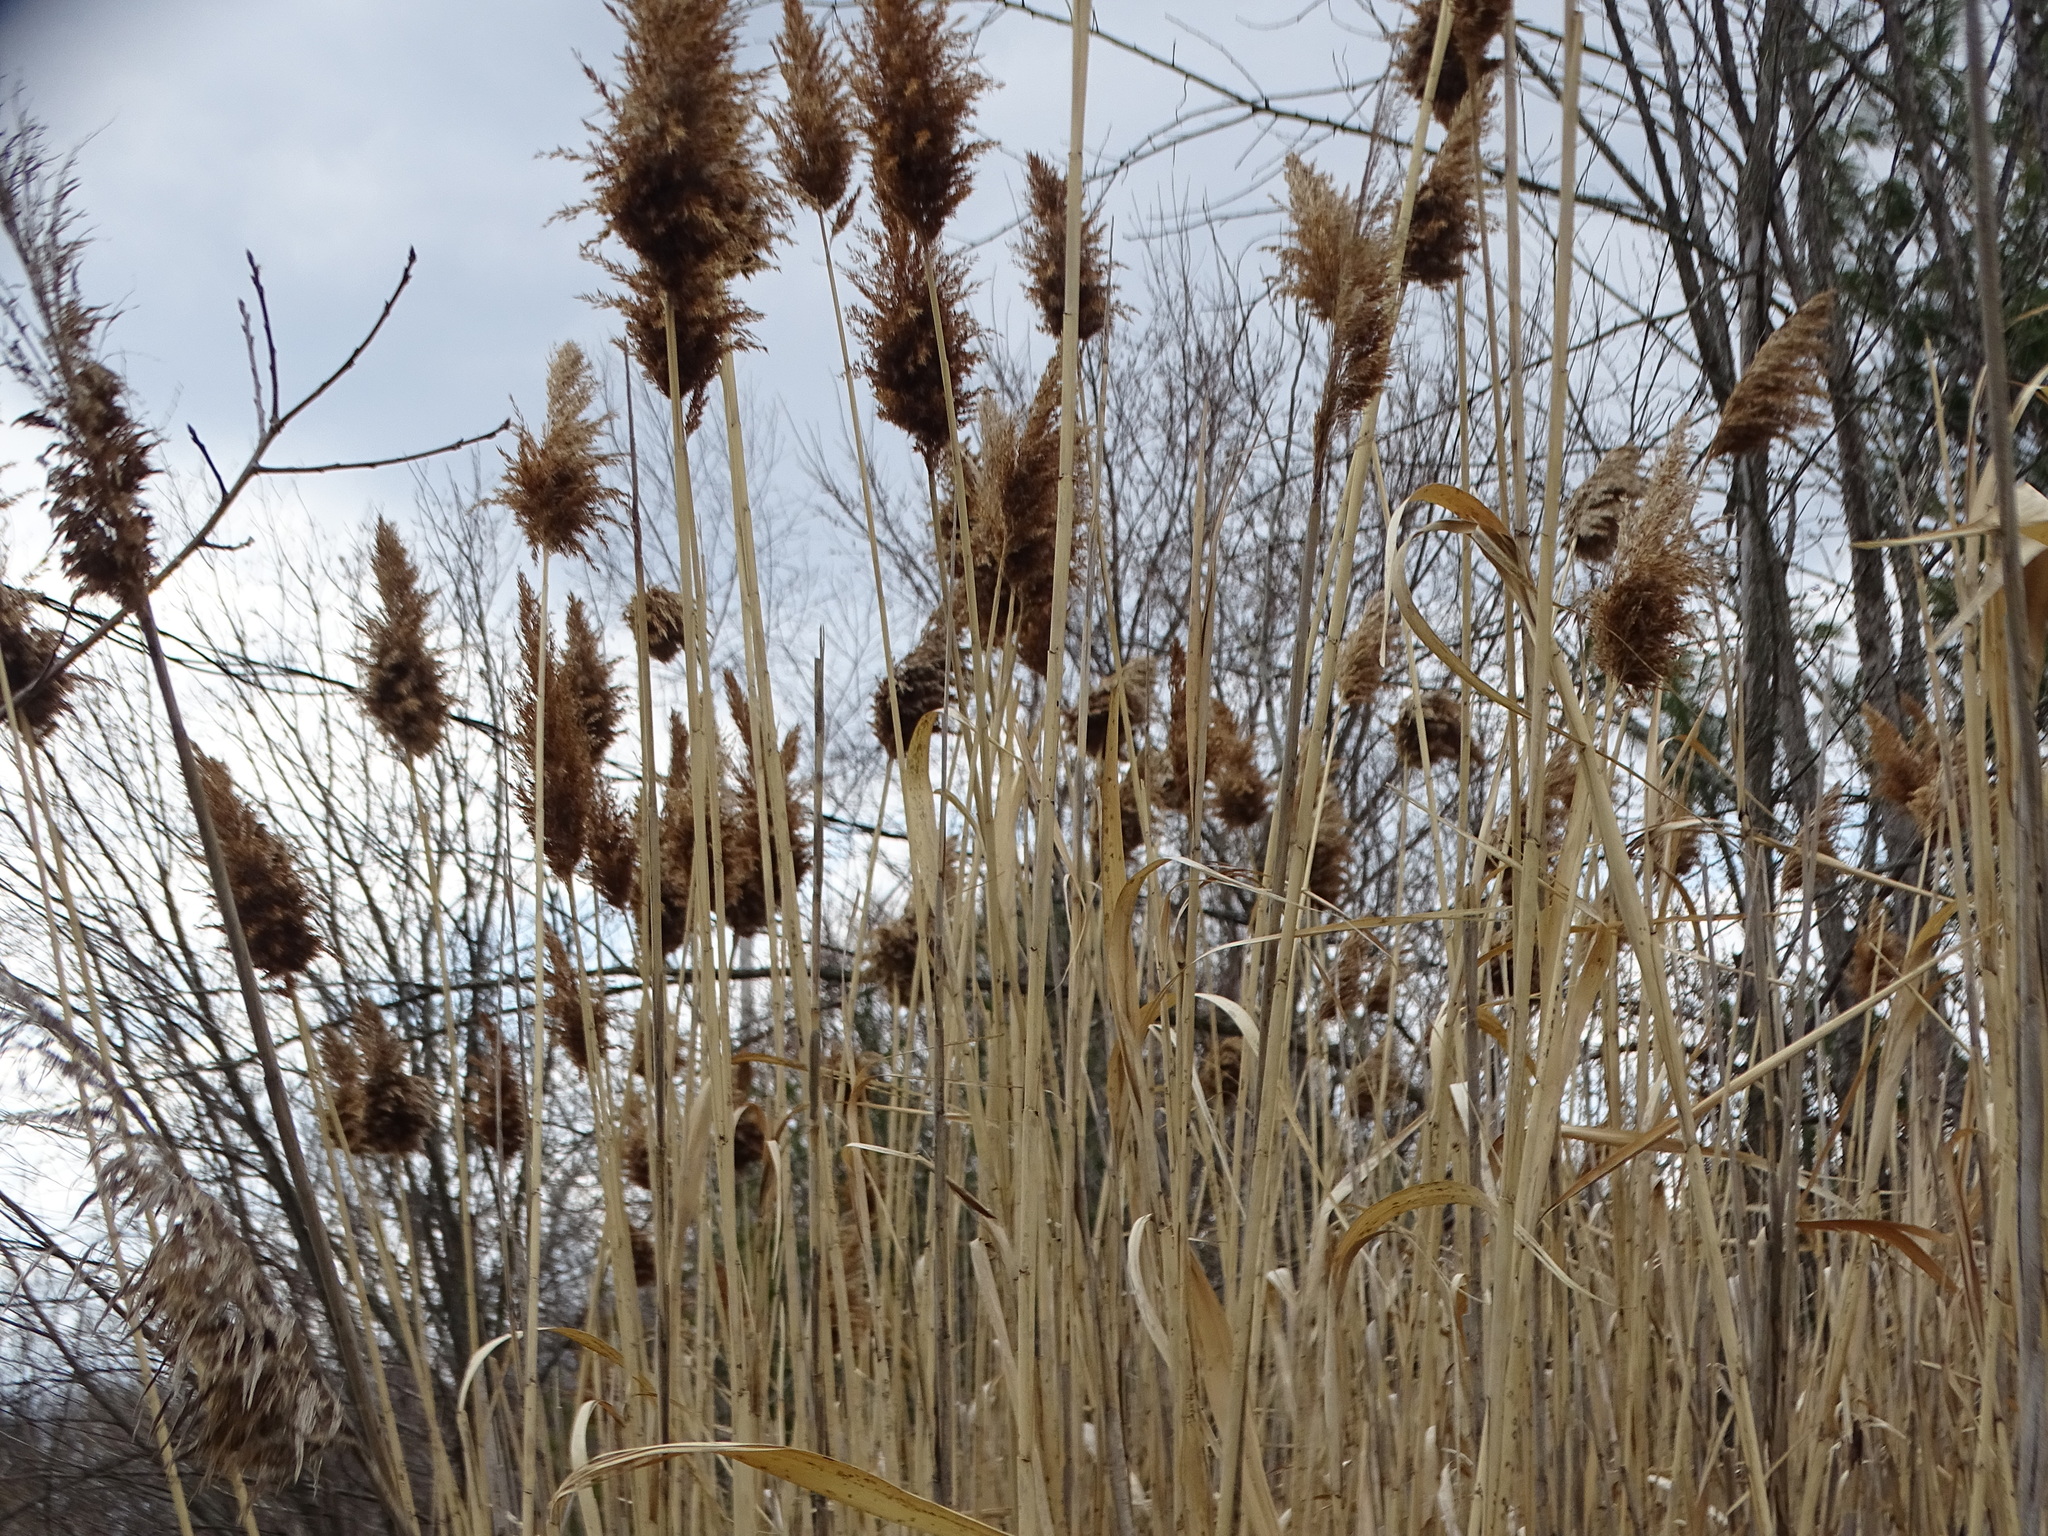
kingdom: Plantae
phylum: Tracheophyta
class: Liliopsida
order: Poales
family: Poaceae
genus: Phragmites
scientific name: Phragmites australis
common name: Common reed
